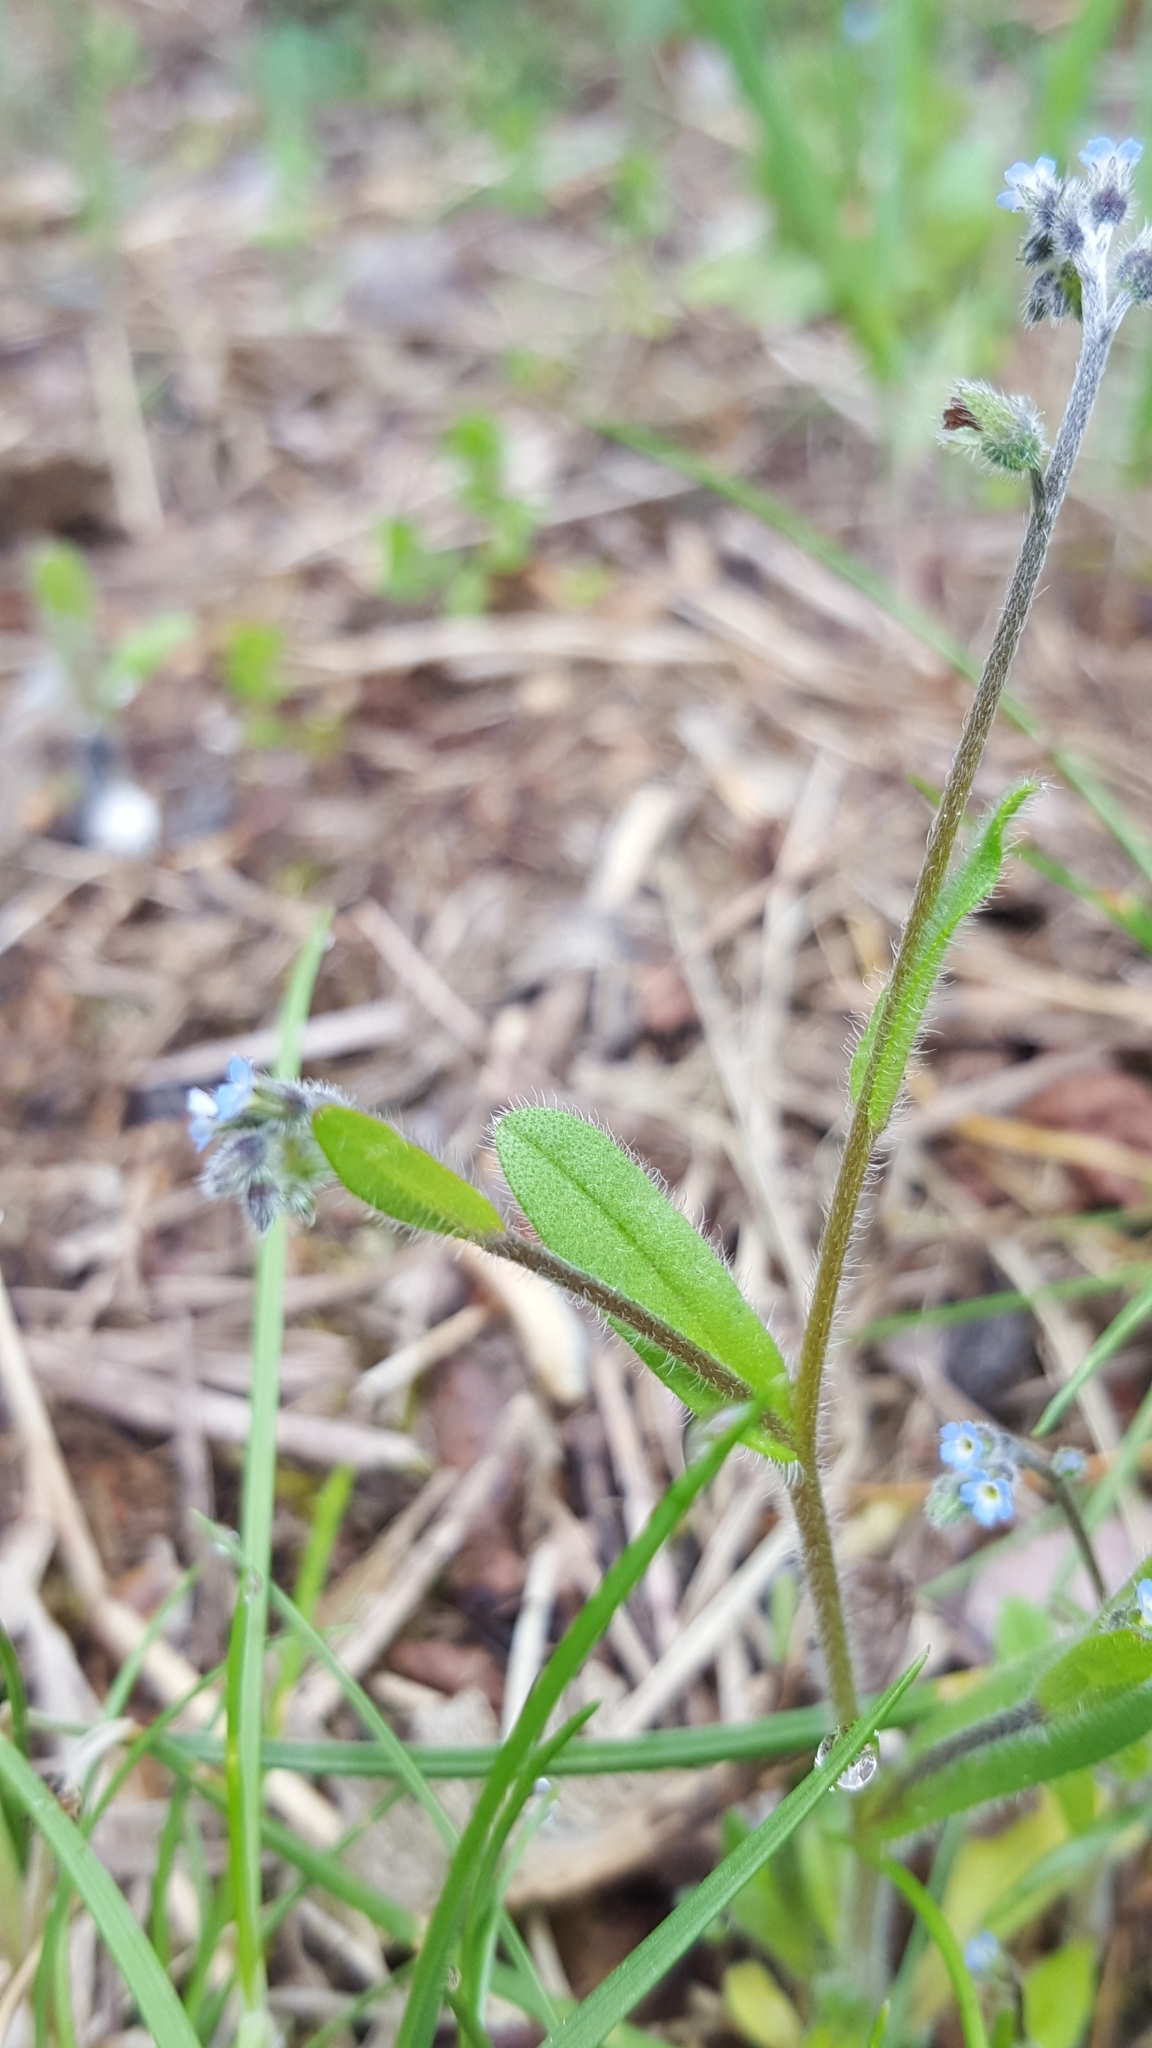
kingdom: Plantae
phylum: Tracheophyta
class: Magnoliopsida
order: Boraginales
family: Boraginaceae
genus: Myosotis
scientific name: Myosotis arvensis
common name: Field forget-me-not
